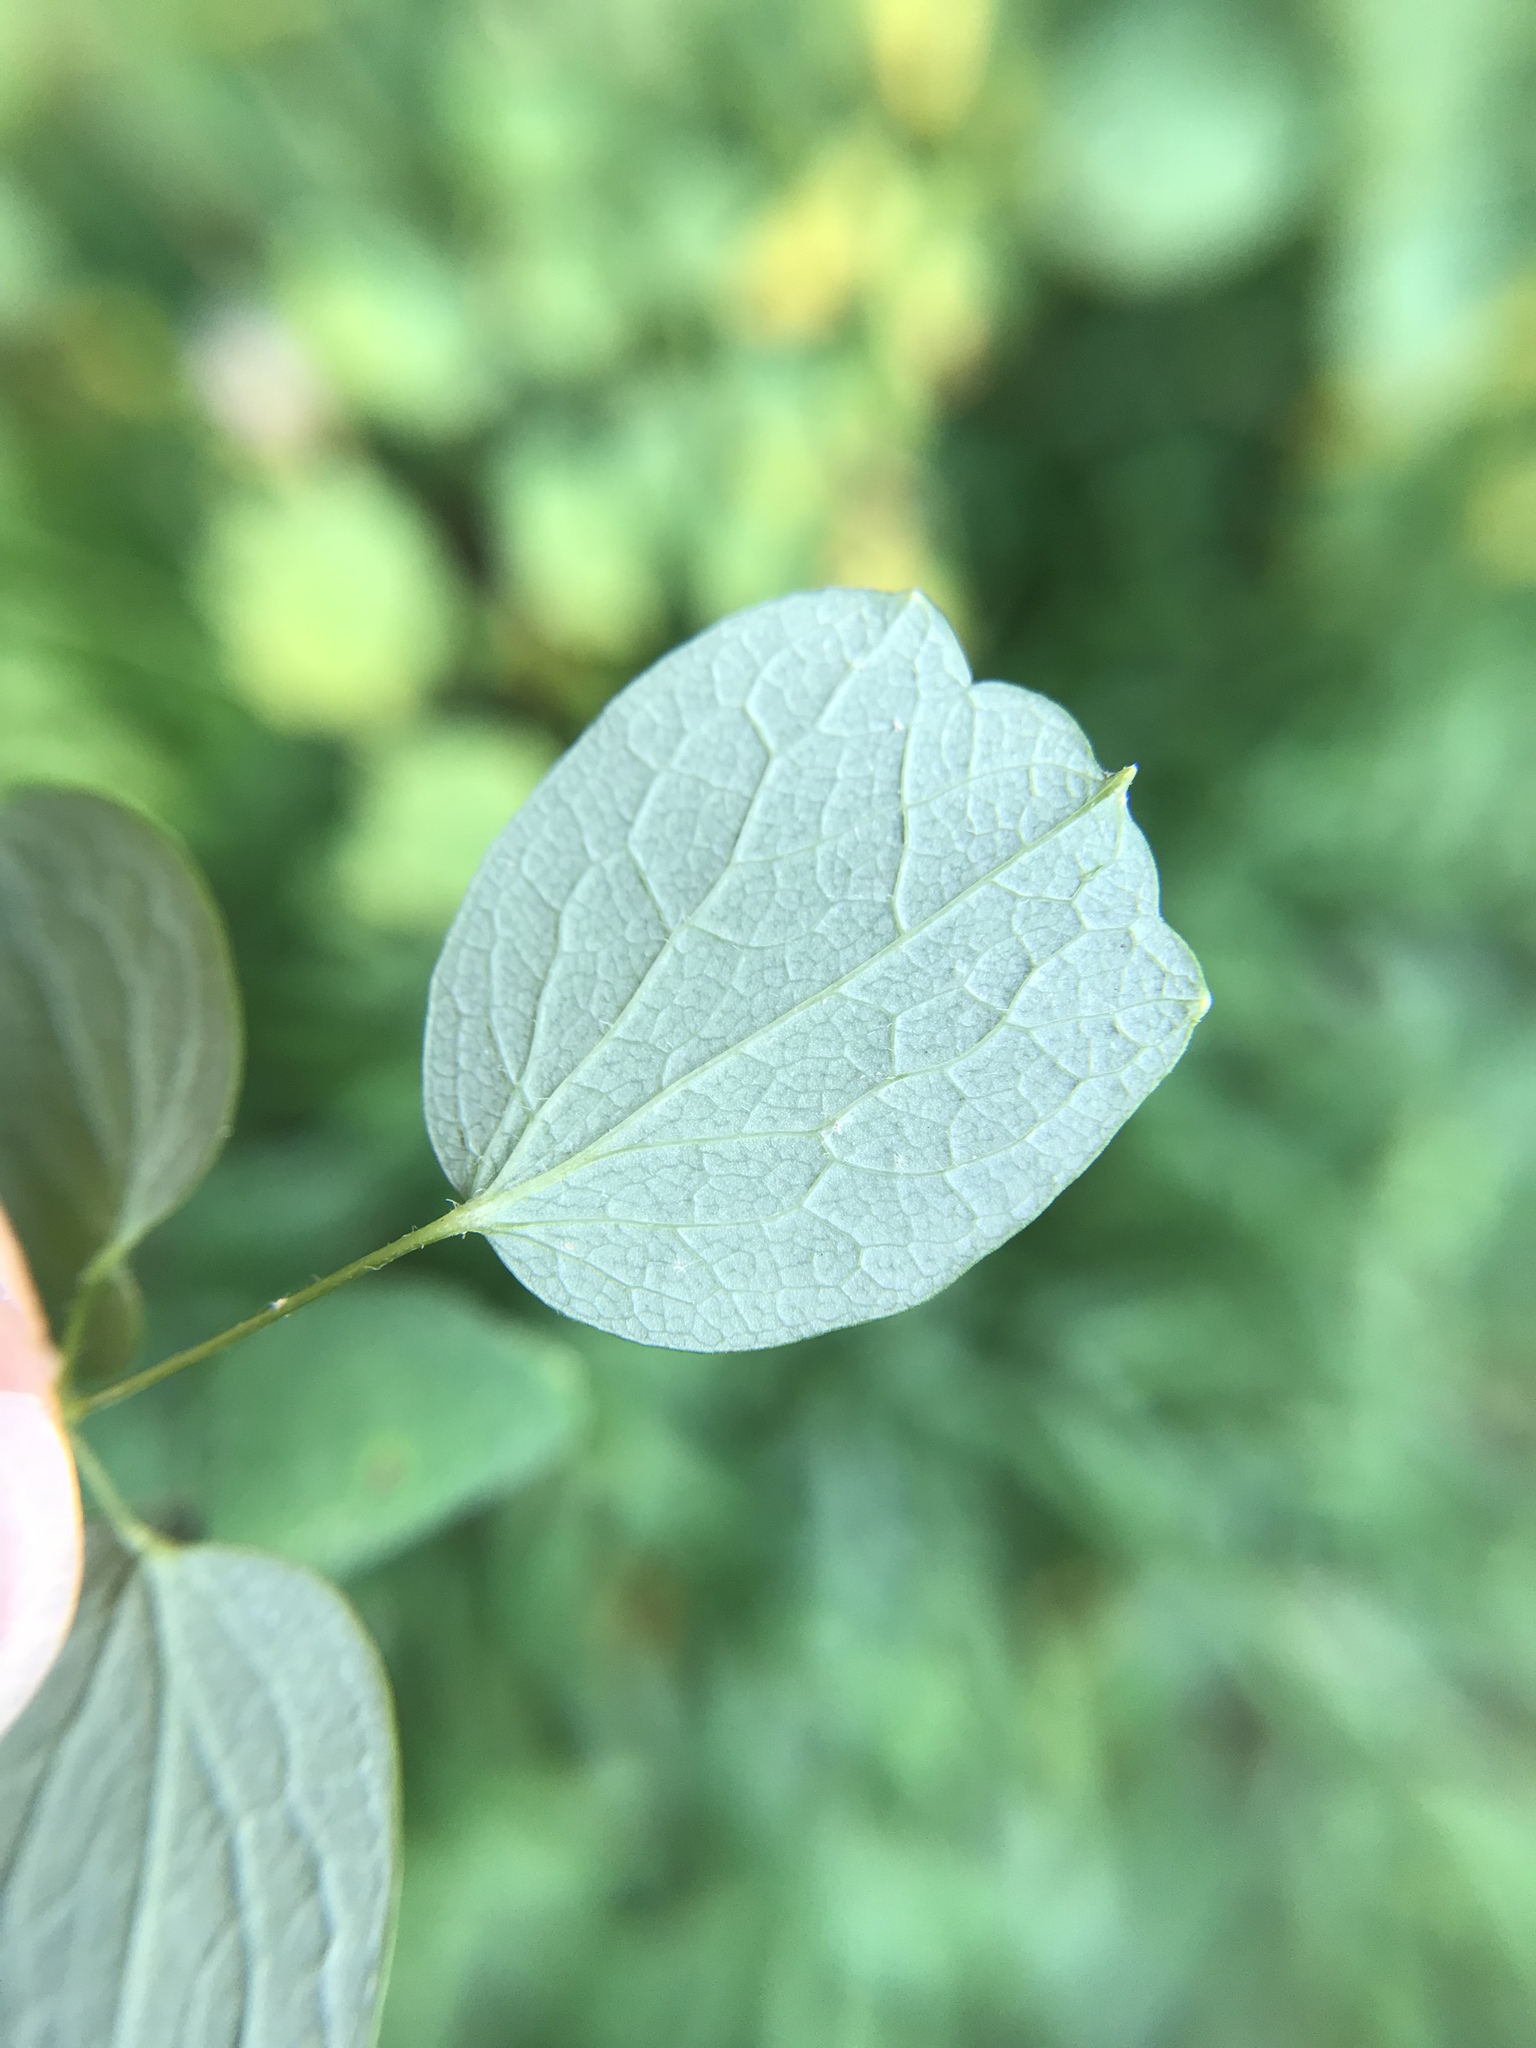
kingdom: Plantae
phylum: Tracheophyta
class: Magnoliopsida
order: Ranunculales
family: Ranunculaceae
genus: Thalictrum
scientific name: Thalictrum pubescens
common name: King-of-the-meadow
